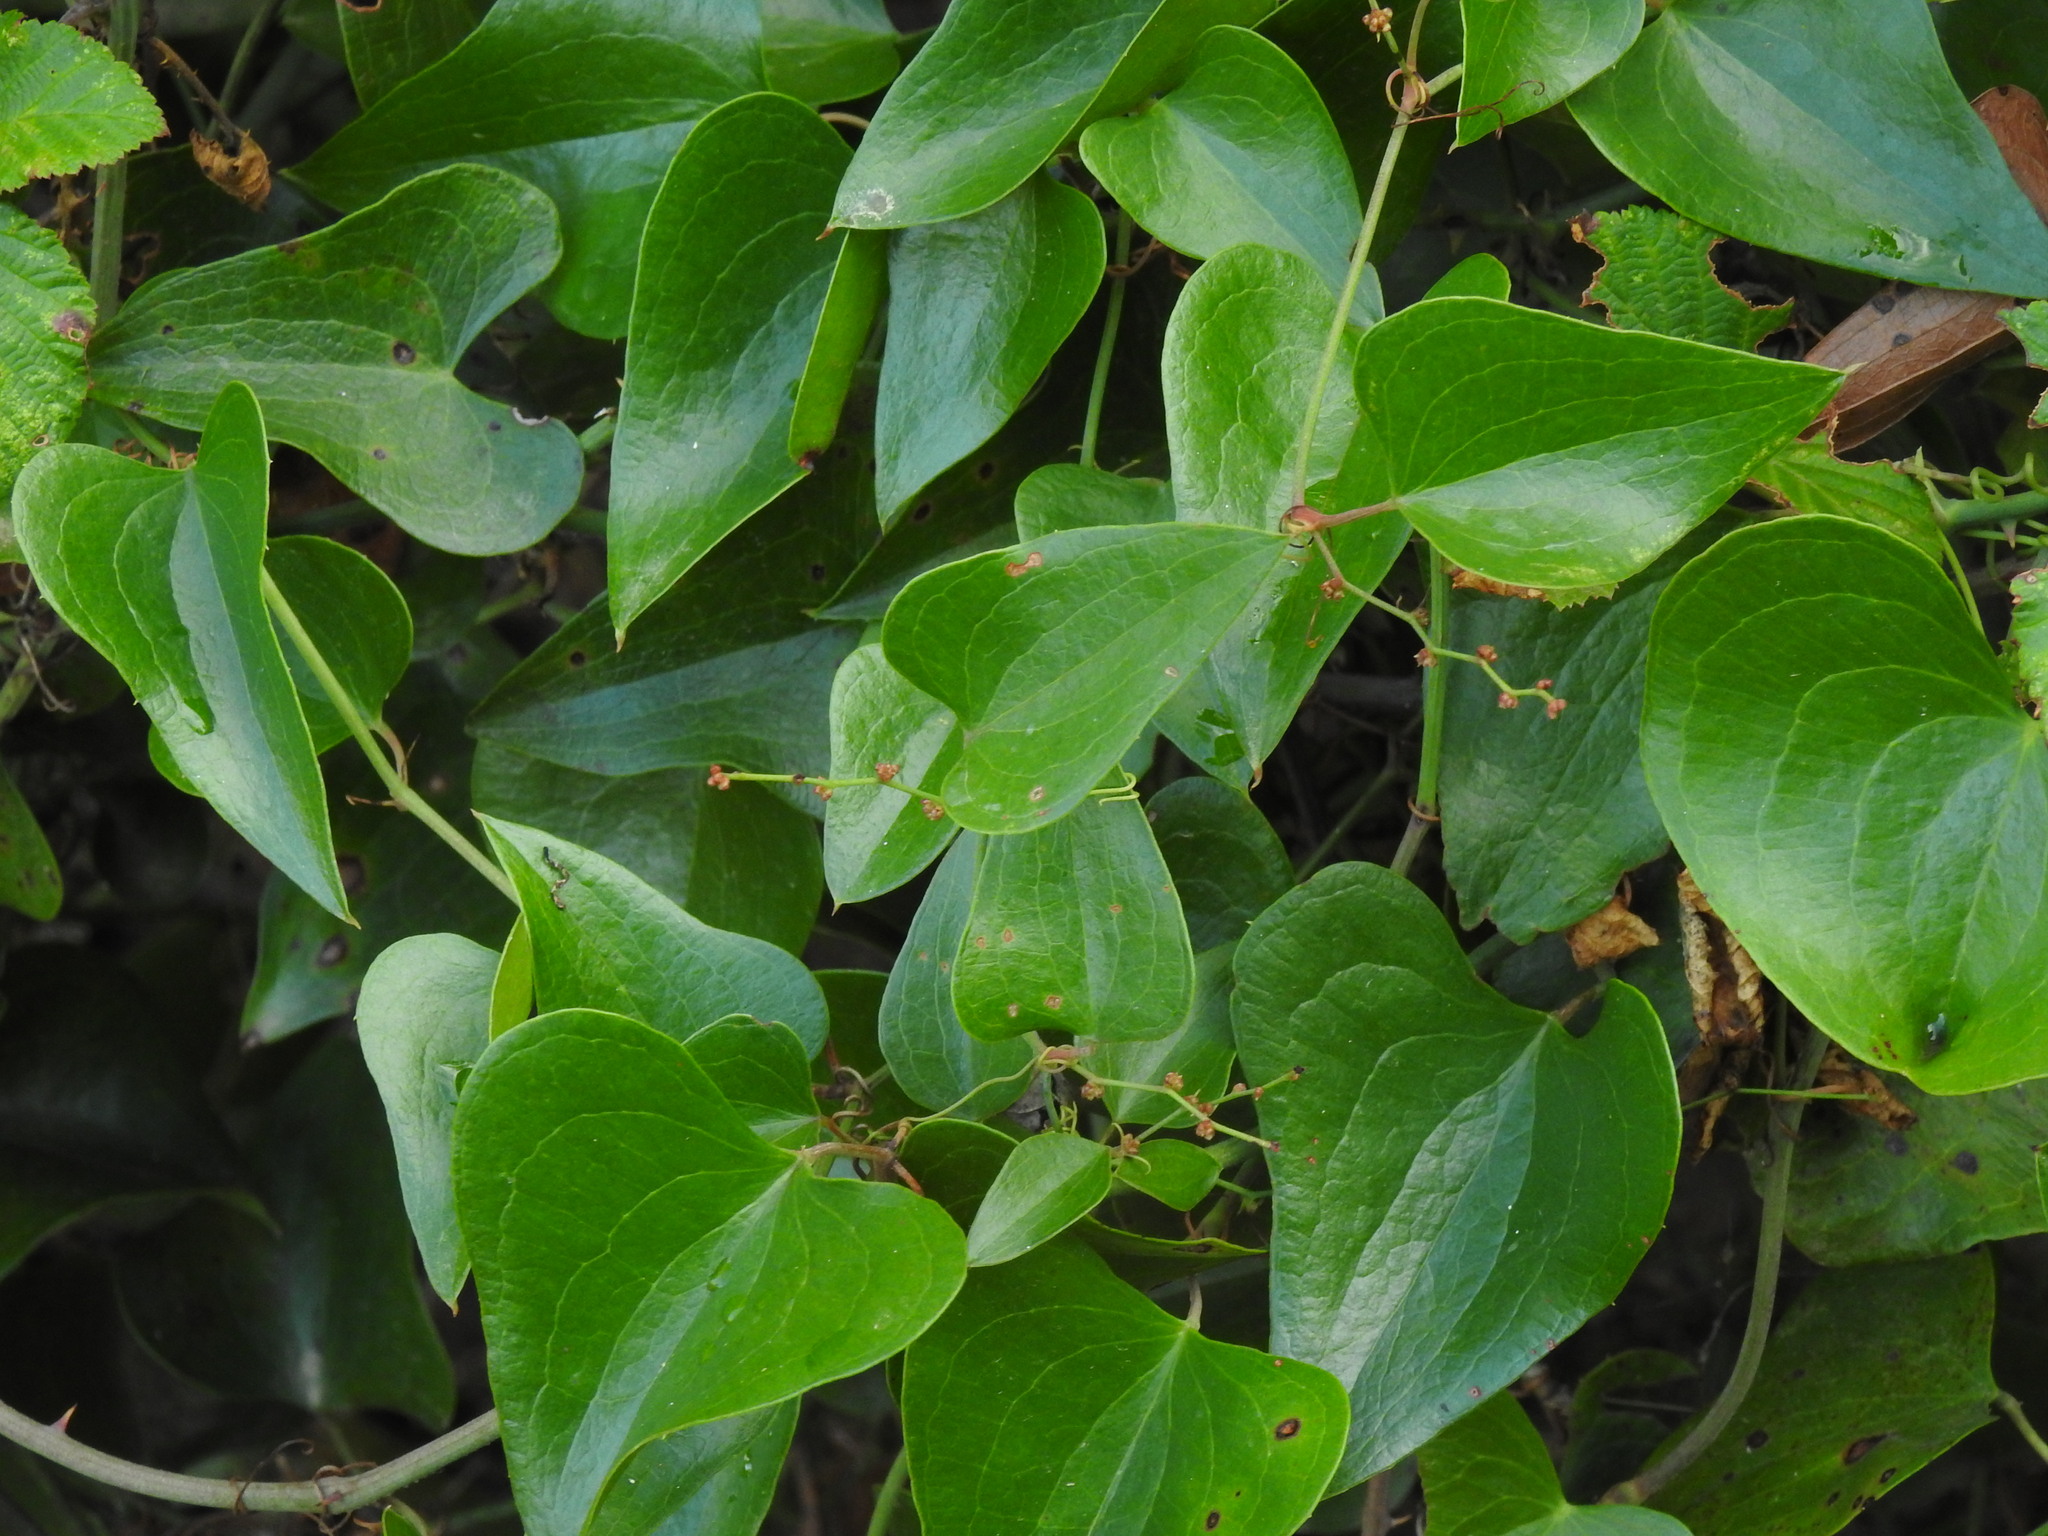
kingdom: Plantae
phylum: Tracheophyta
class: Liliopsida
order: Liliales
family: Smilacaceae
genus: Smilax
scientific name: Smilax aspera
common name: Common smilax
